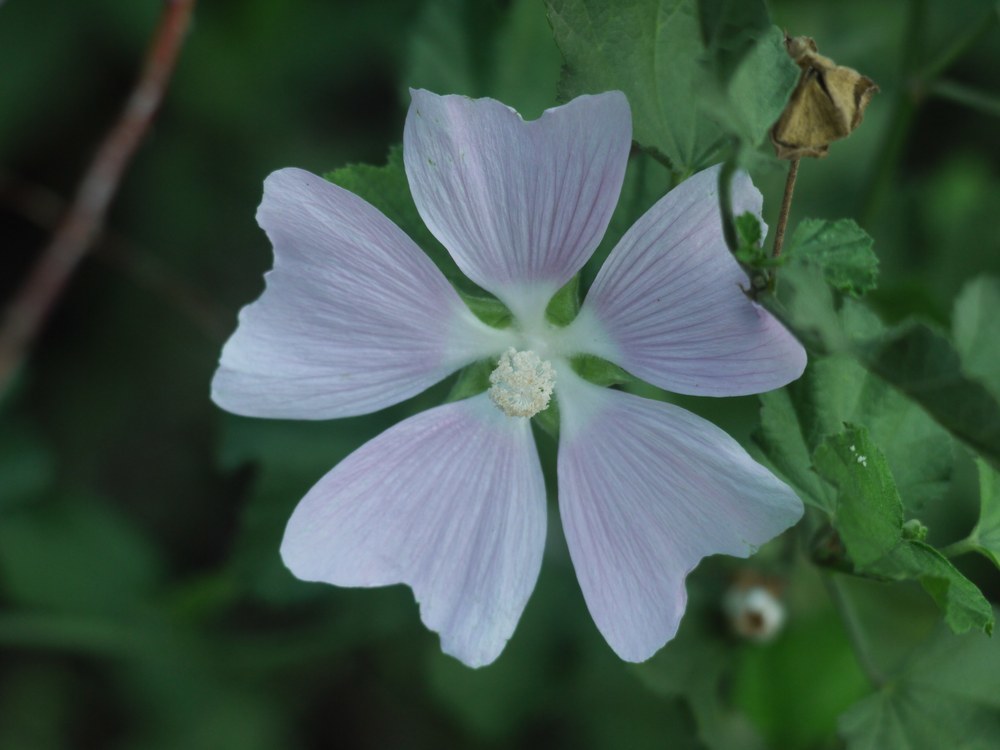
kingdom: Plantae
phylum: Tracheophyta
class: Magnoliopsida
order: Malvales
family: Malvaceae
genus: Malva
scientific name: Malva thuringiaca
